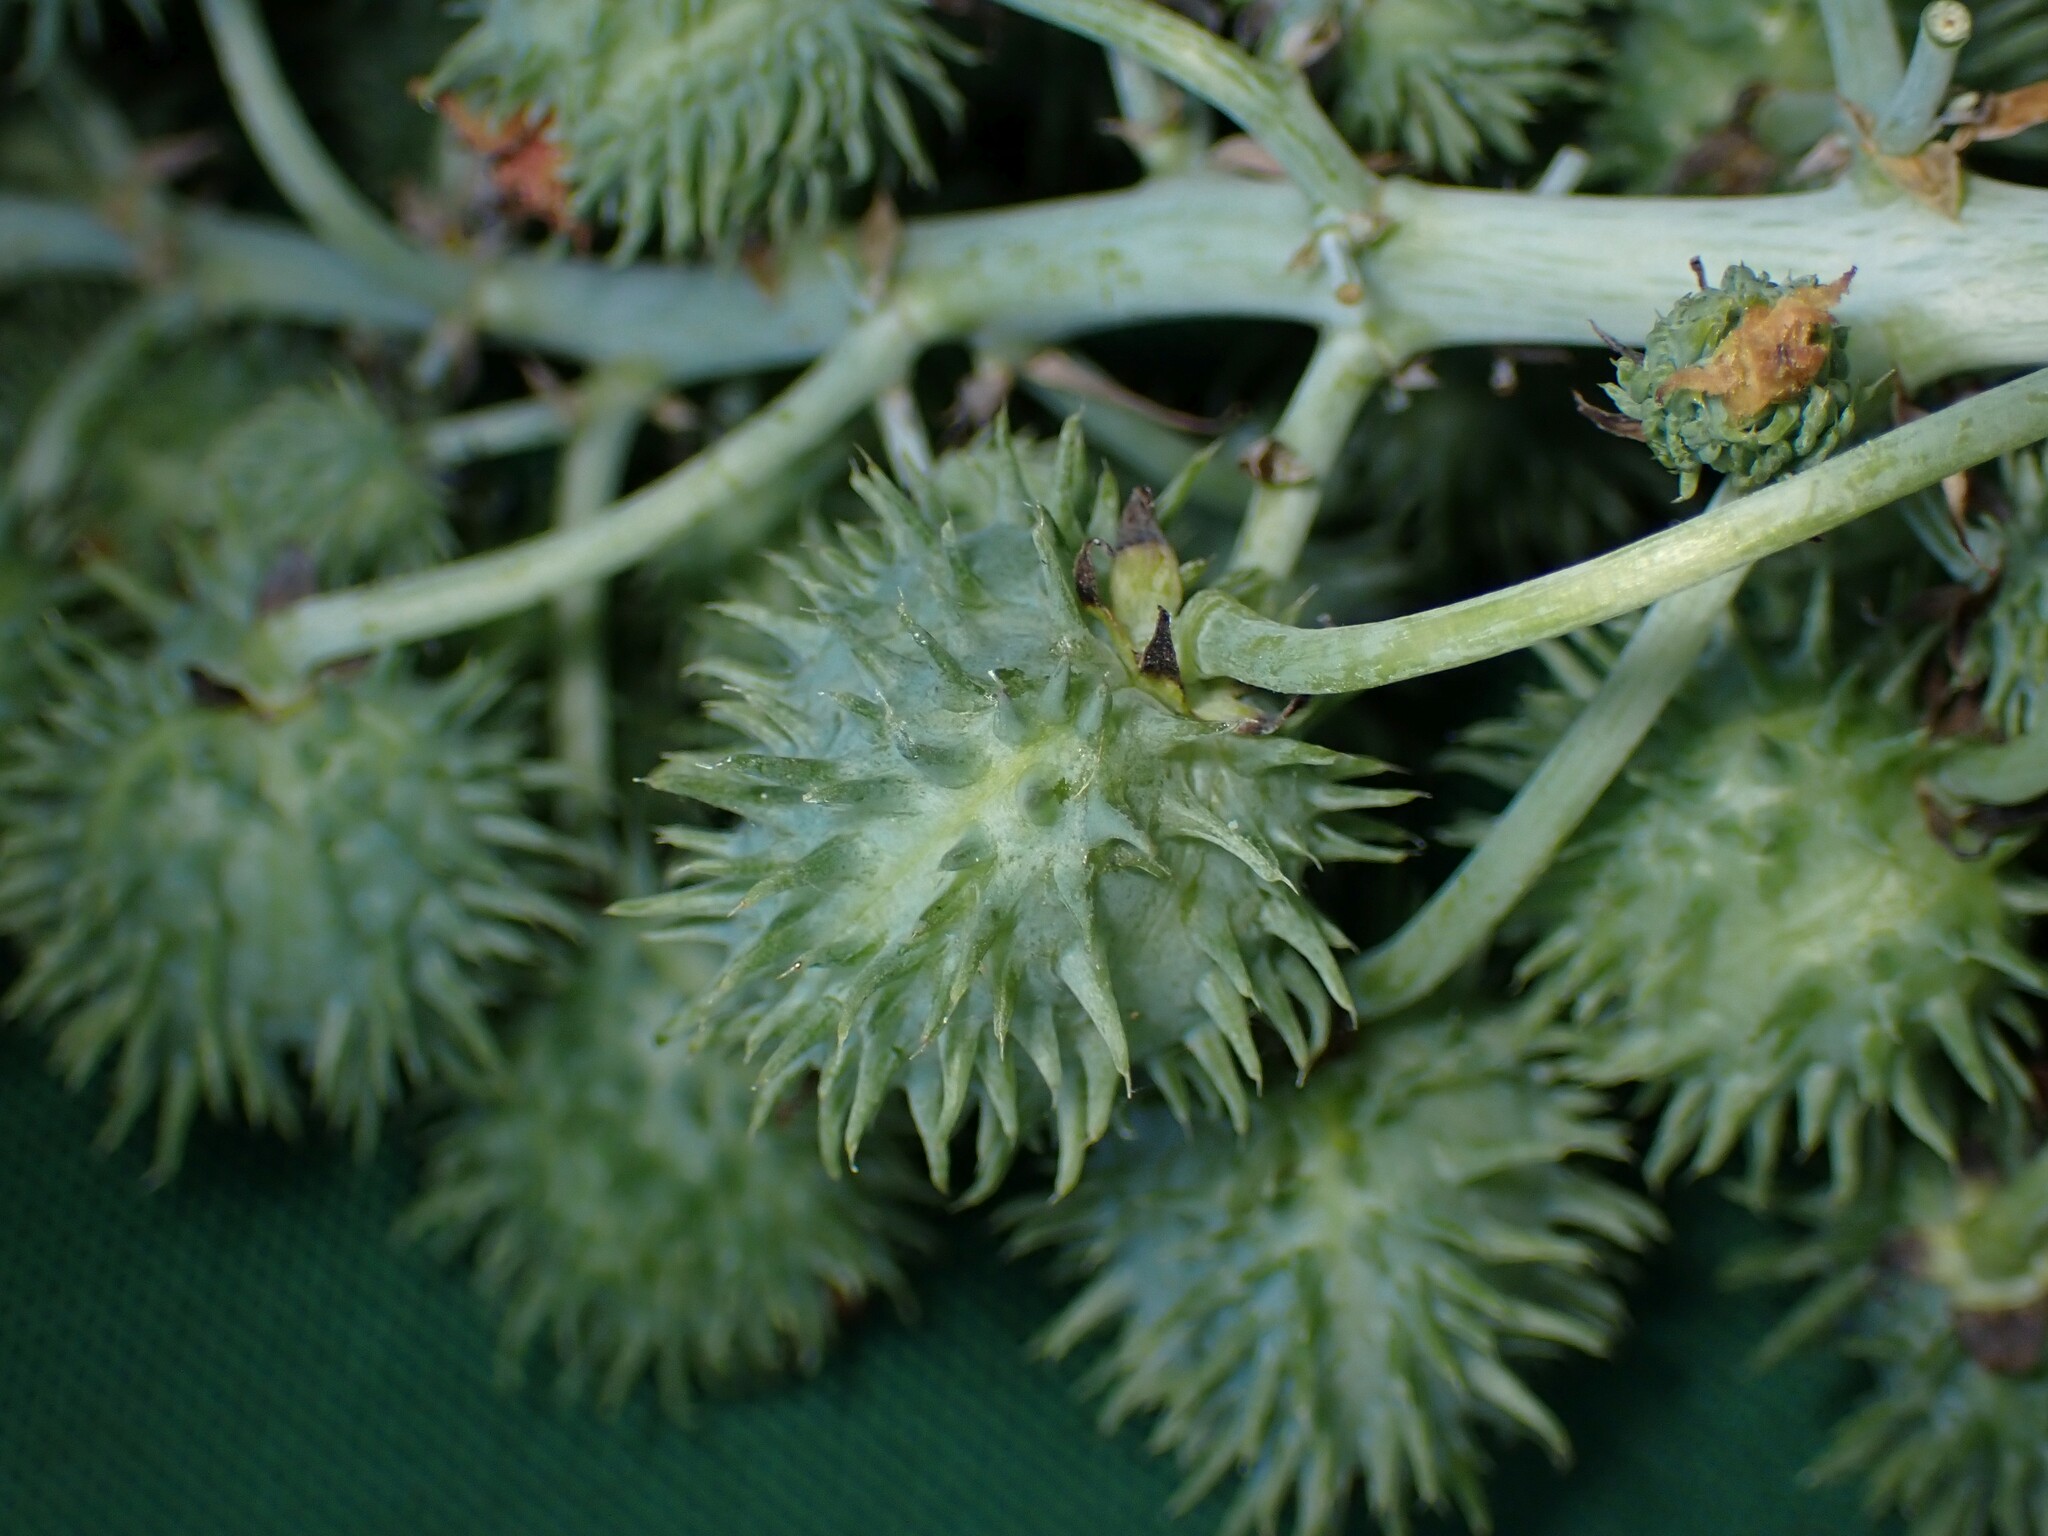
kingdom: Plantae
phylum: Tracheophyta
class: Magnoliopsida
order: Malpighiales
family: Euphorbiaceae
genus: Ricinus
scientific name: Ricinus communis
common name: Castor-oil-plant
